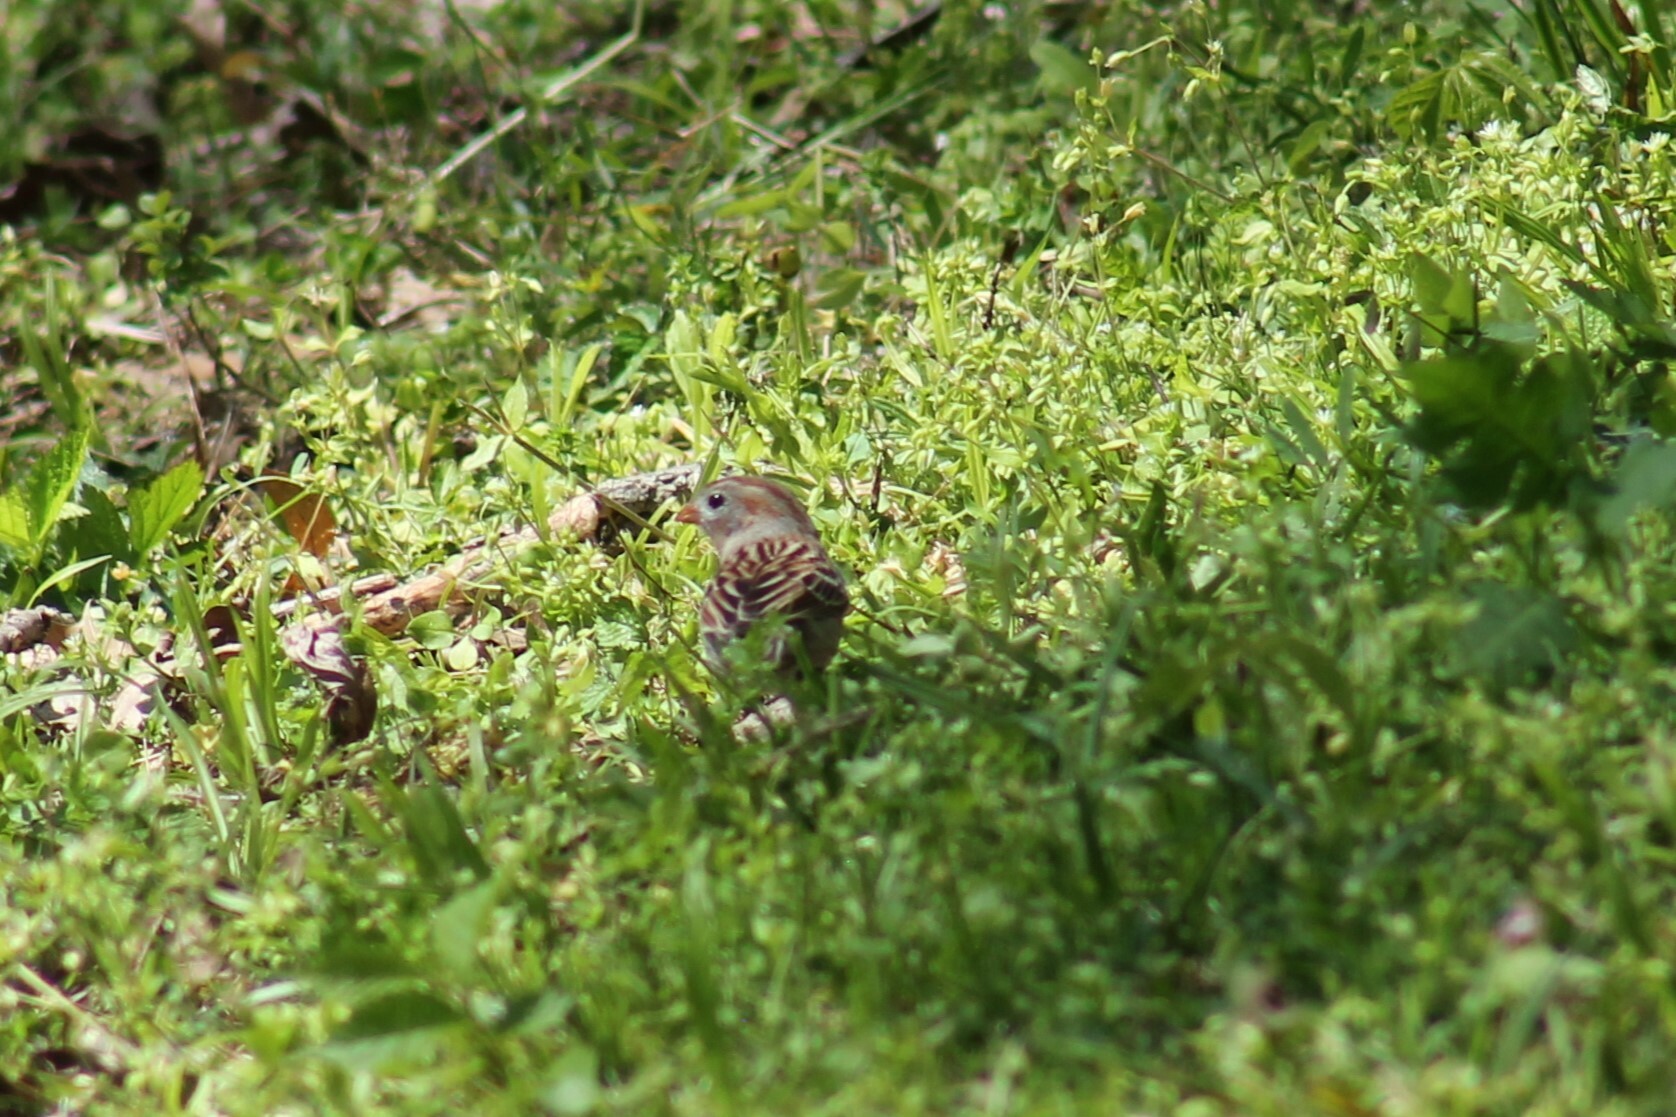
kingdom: Animalia
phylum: Chordata
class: Aves
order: Passeriformes
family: Passerellidae
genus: Spizella
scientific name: Spizella pusilla
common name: Field sparrow
